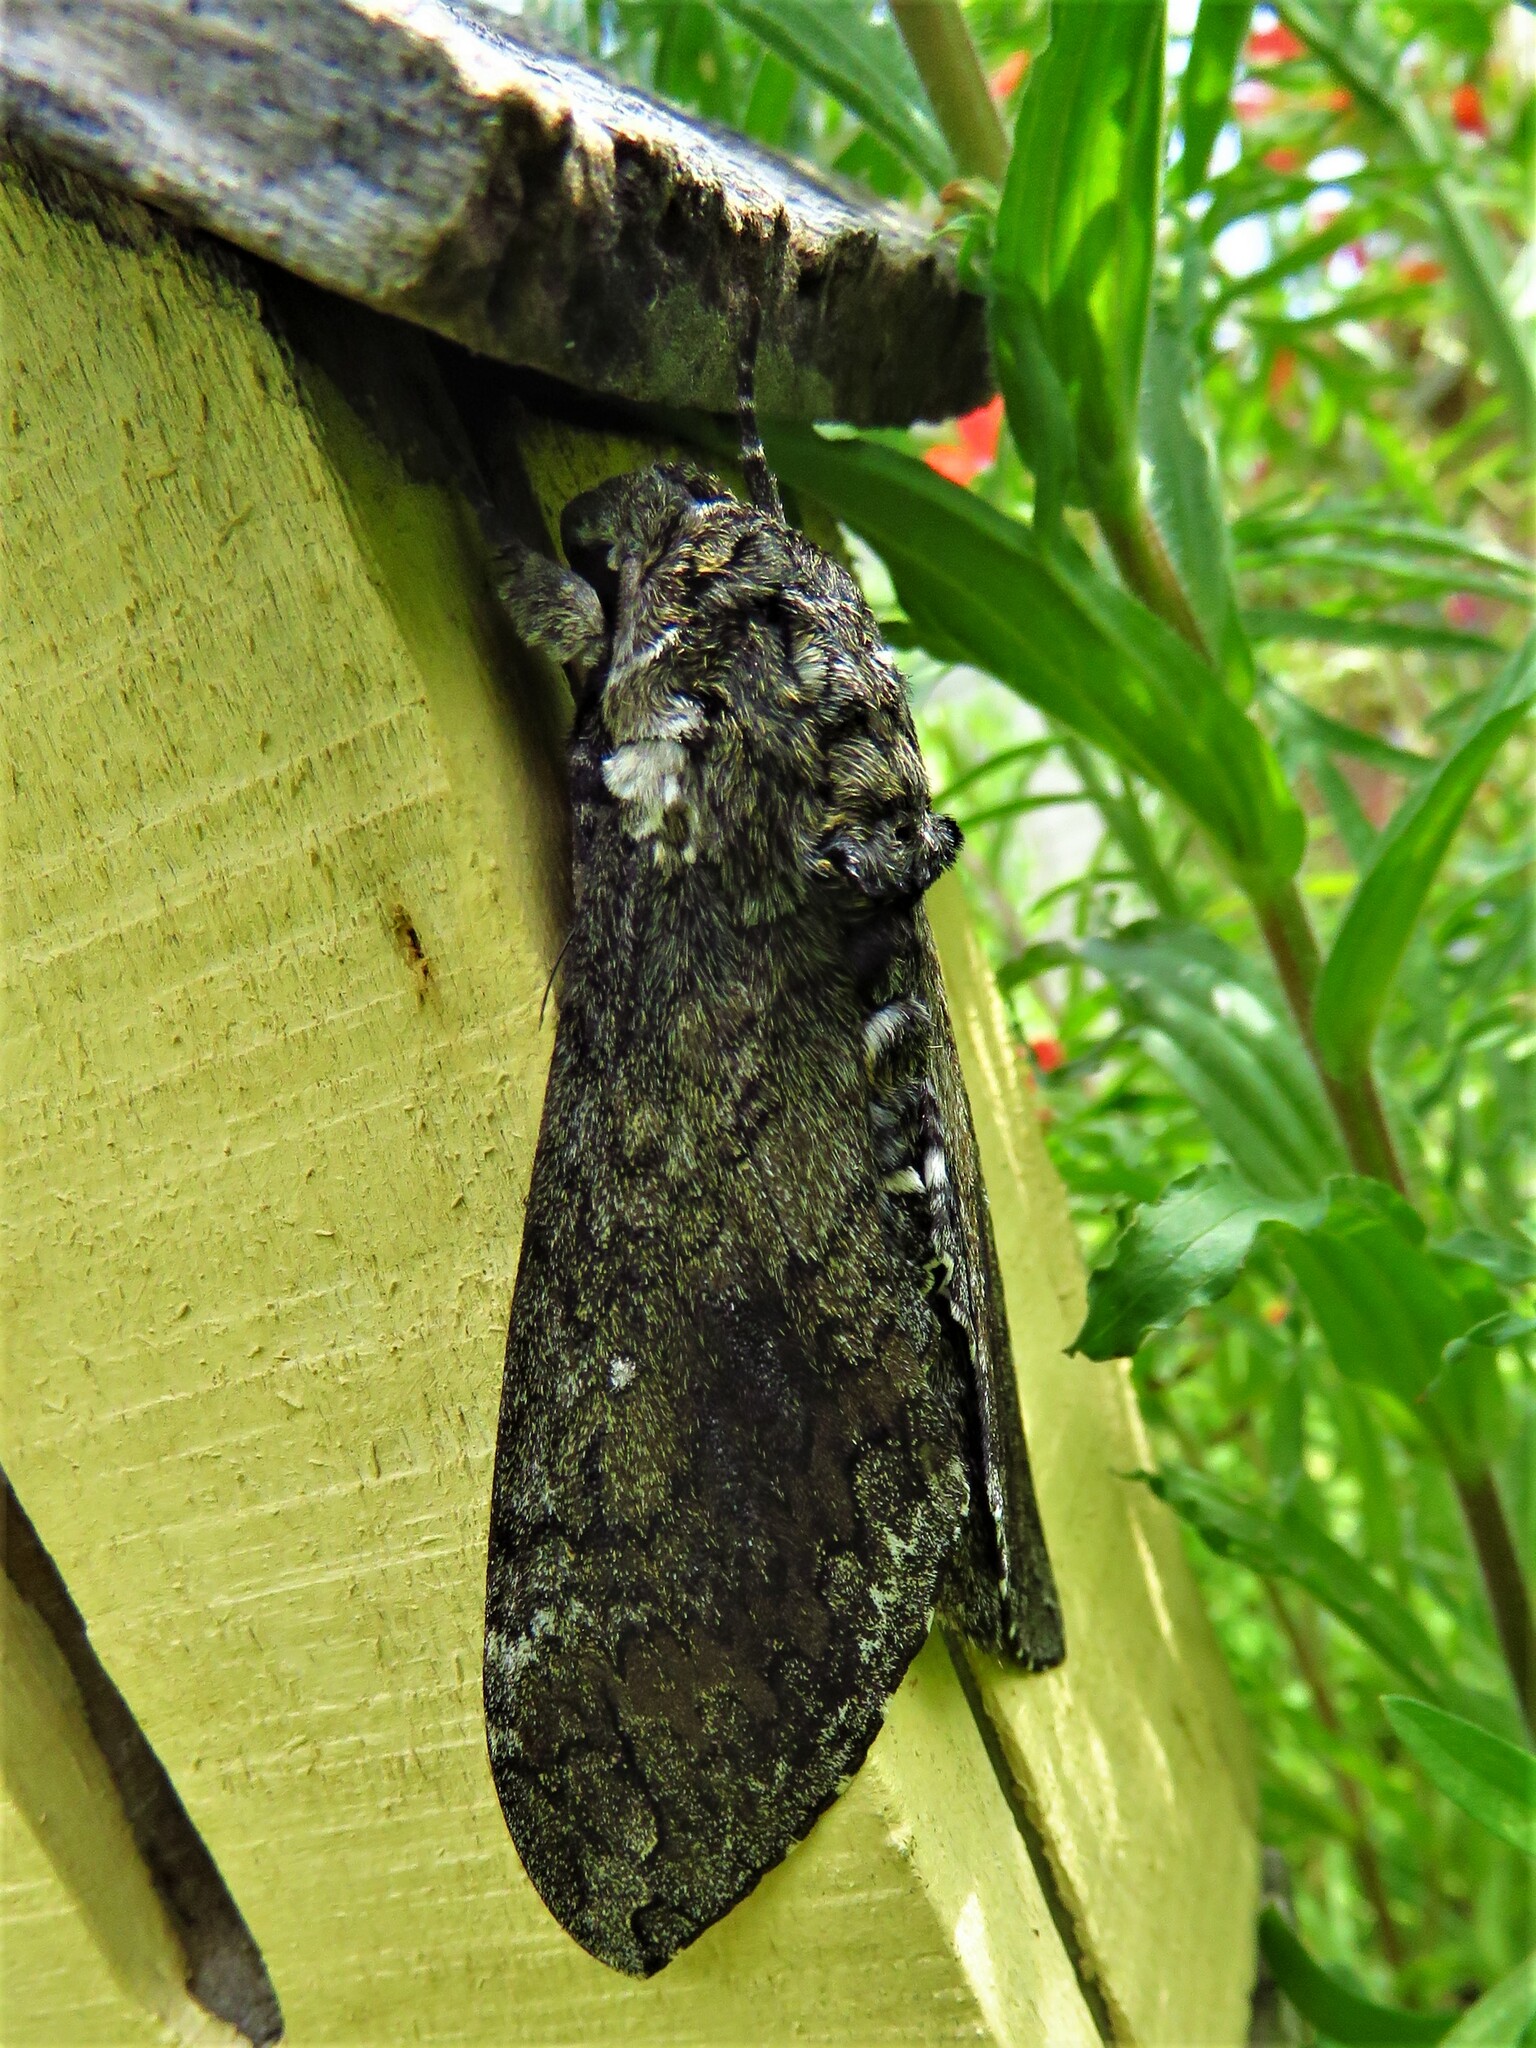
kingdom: Animalia
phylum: Arthropoda
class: Insecta
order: Lepidoptera
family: Sphingidae
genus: Manduca
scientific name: Manduca sexta
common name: Carolina sphinx
